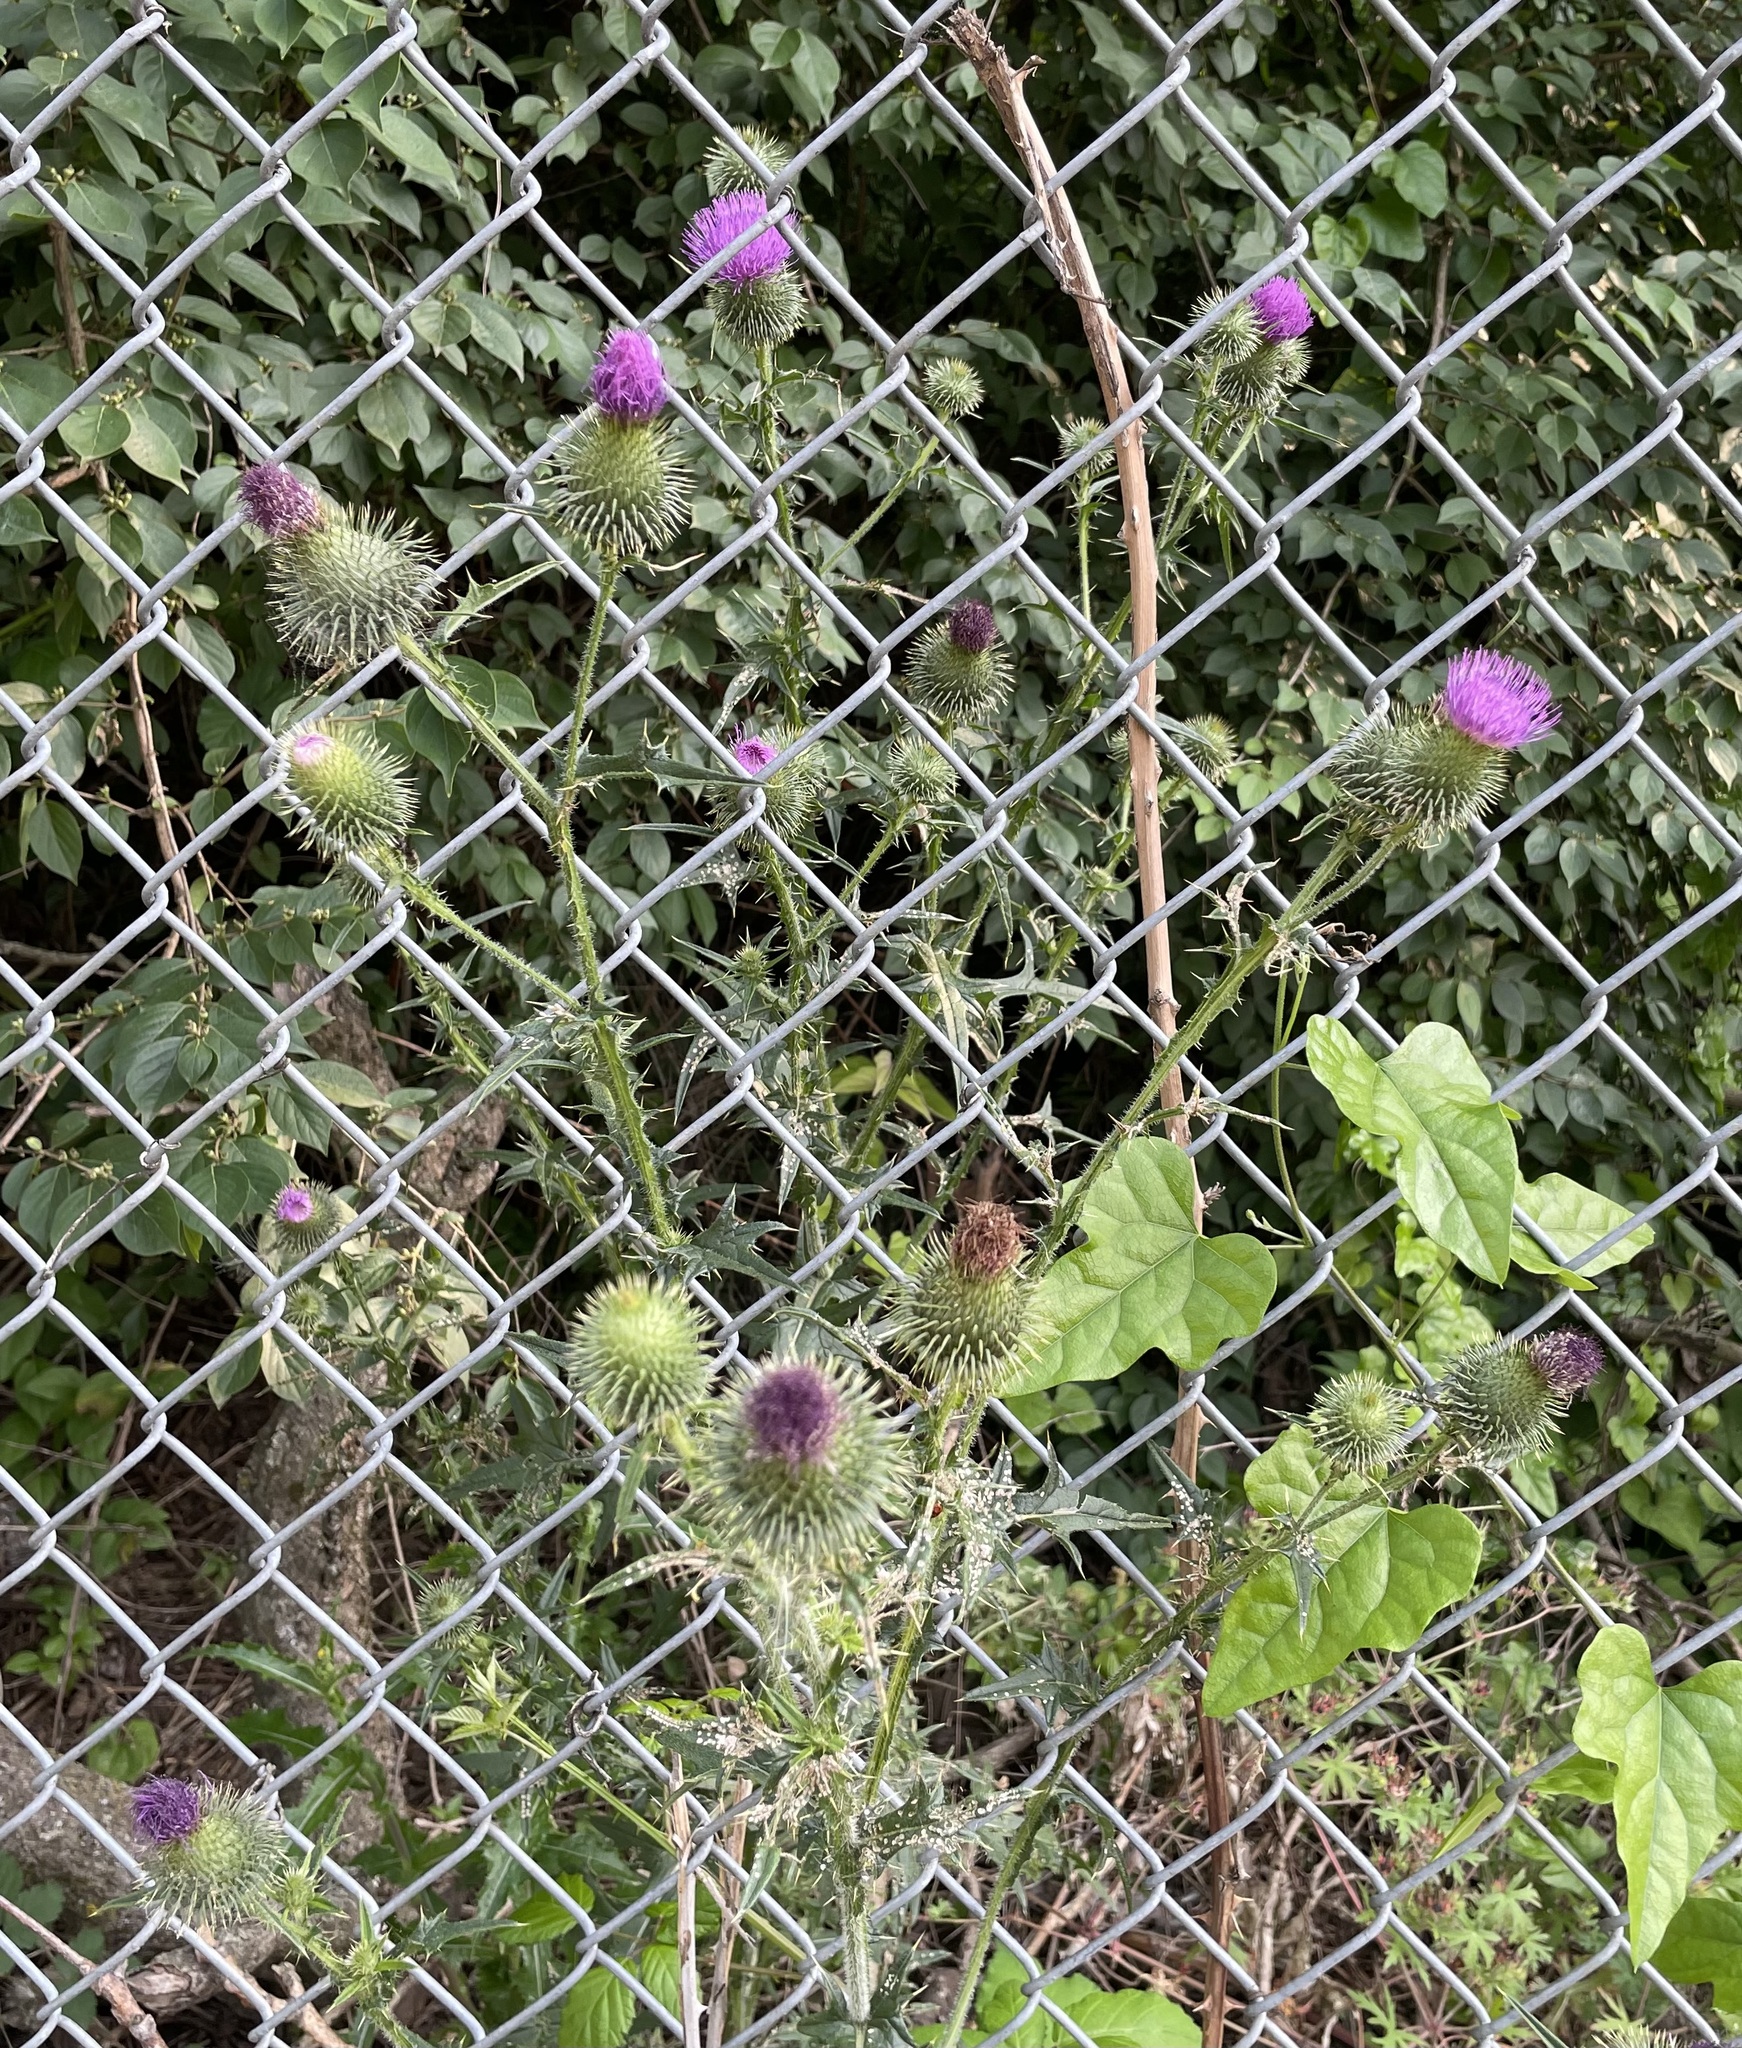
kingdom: Plantae
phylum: Tracheophyta
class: Magnoliopsida
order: Asterales
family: Asteraceae
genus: Cirsium
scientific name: Cirsium vulgare
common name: Bull thistle
